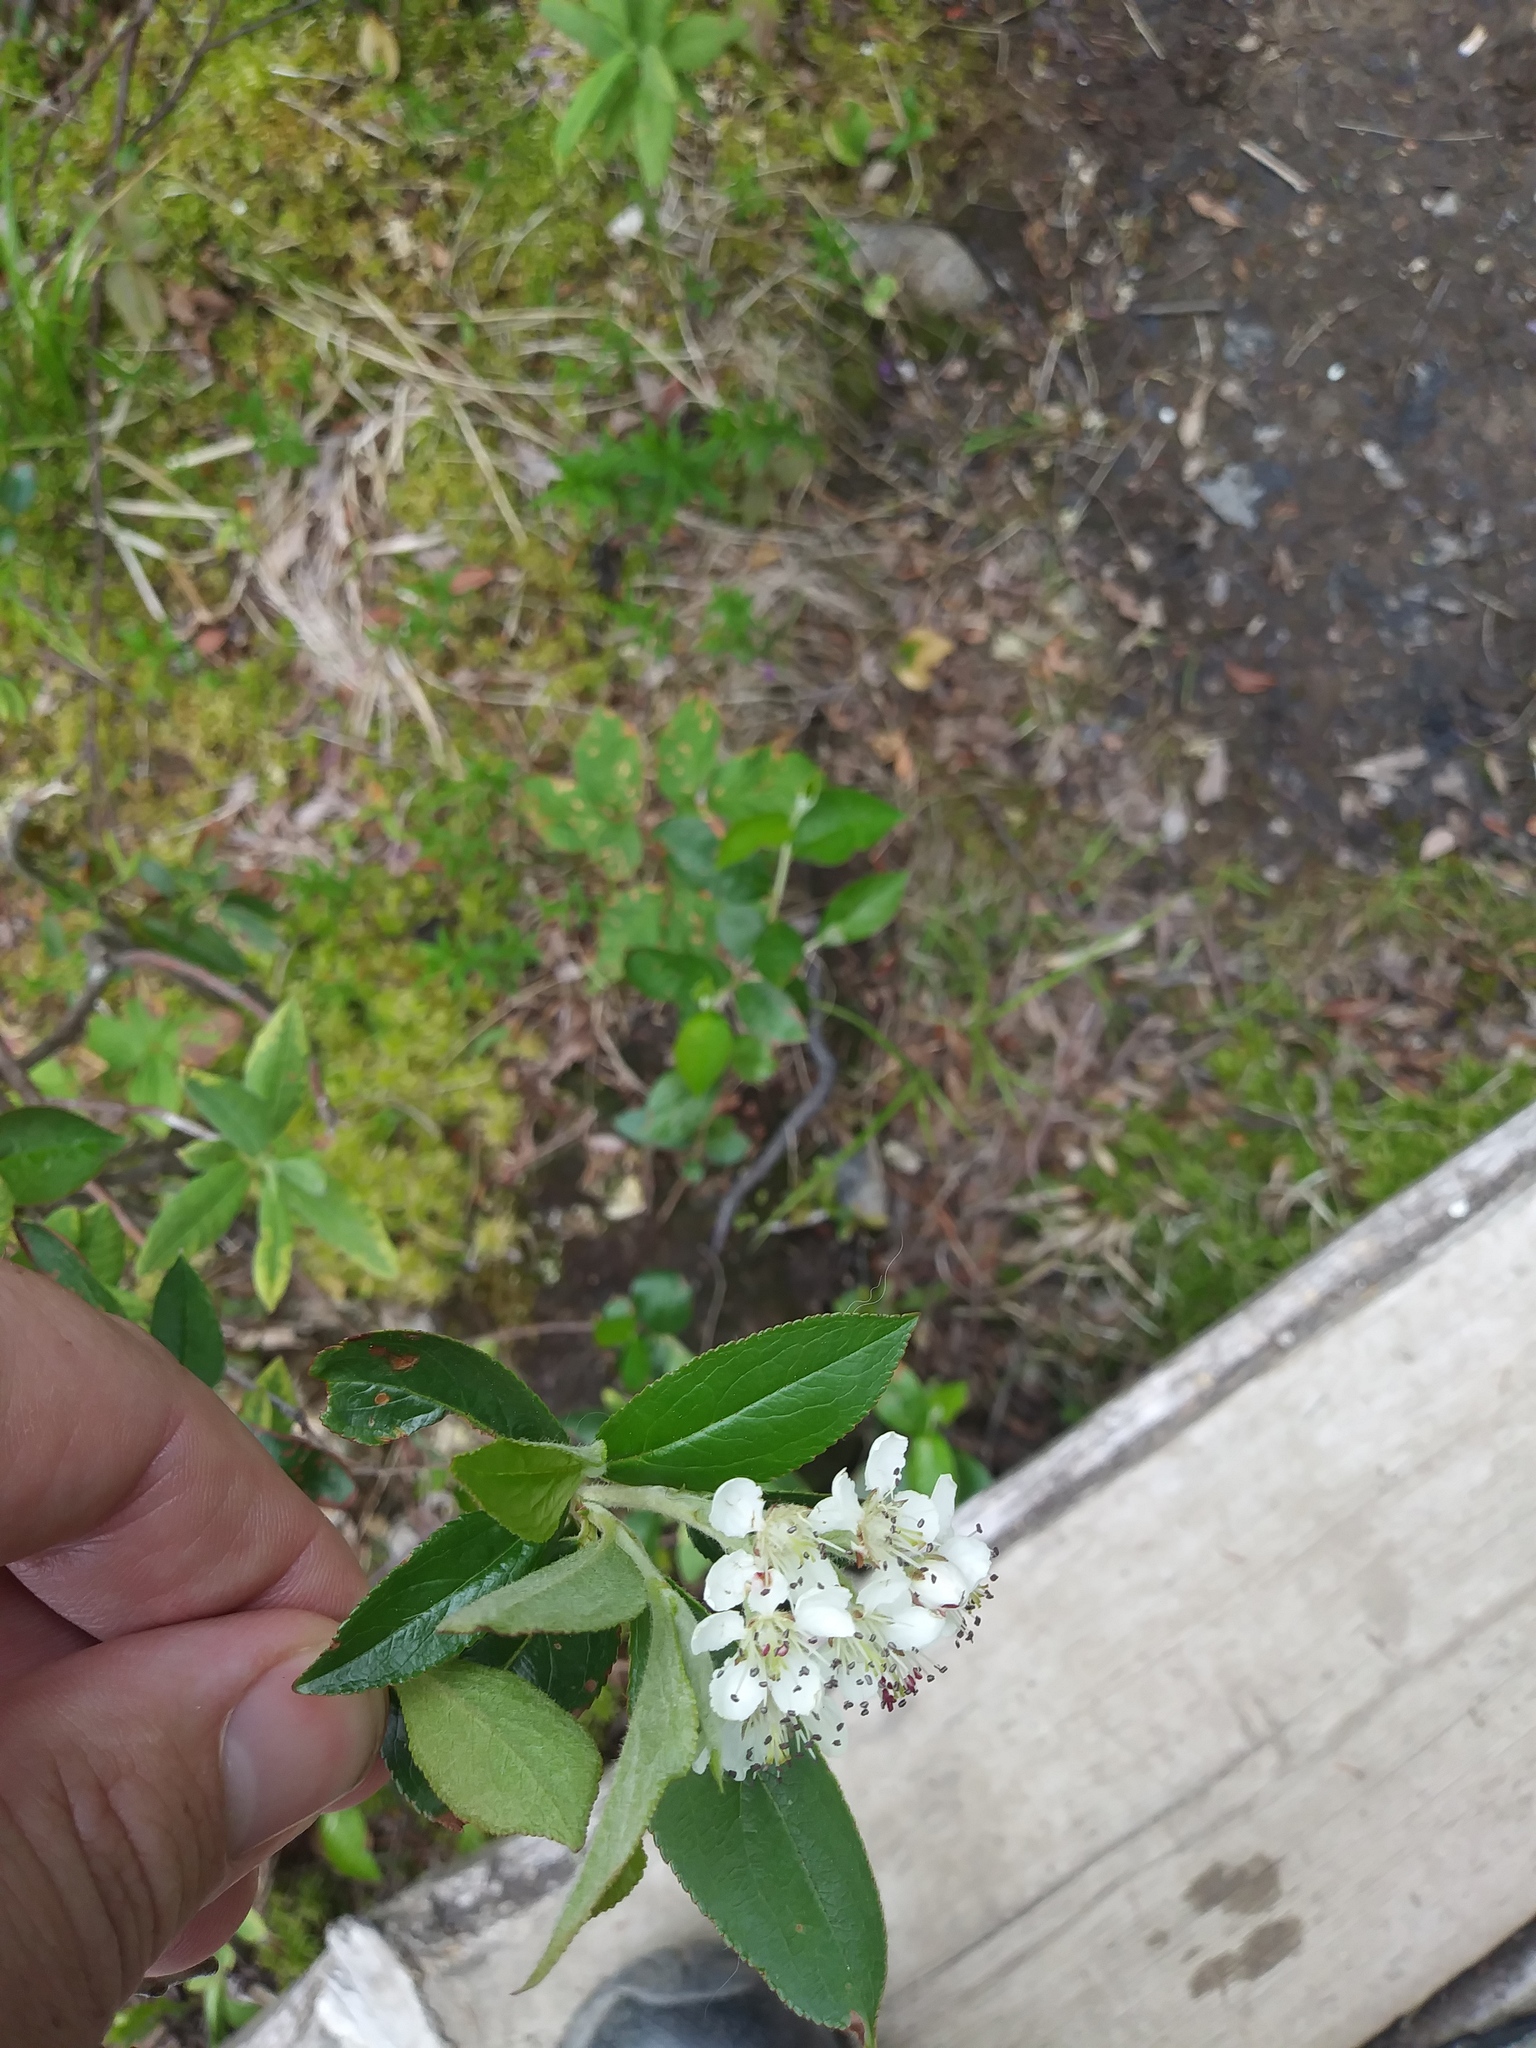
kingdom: Plantae
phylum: Tracheophyta
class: Magnoliopsida
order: Rosales
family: Rosaceae
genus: Aronia
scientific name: Aronia prunifolia
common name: Purple chokeberry
